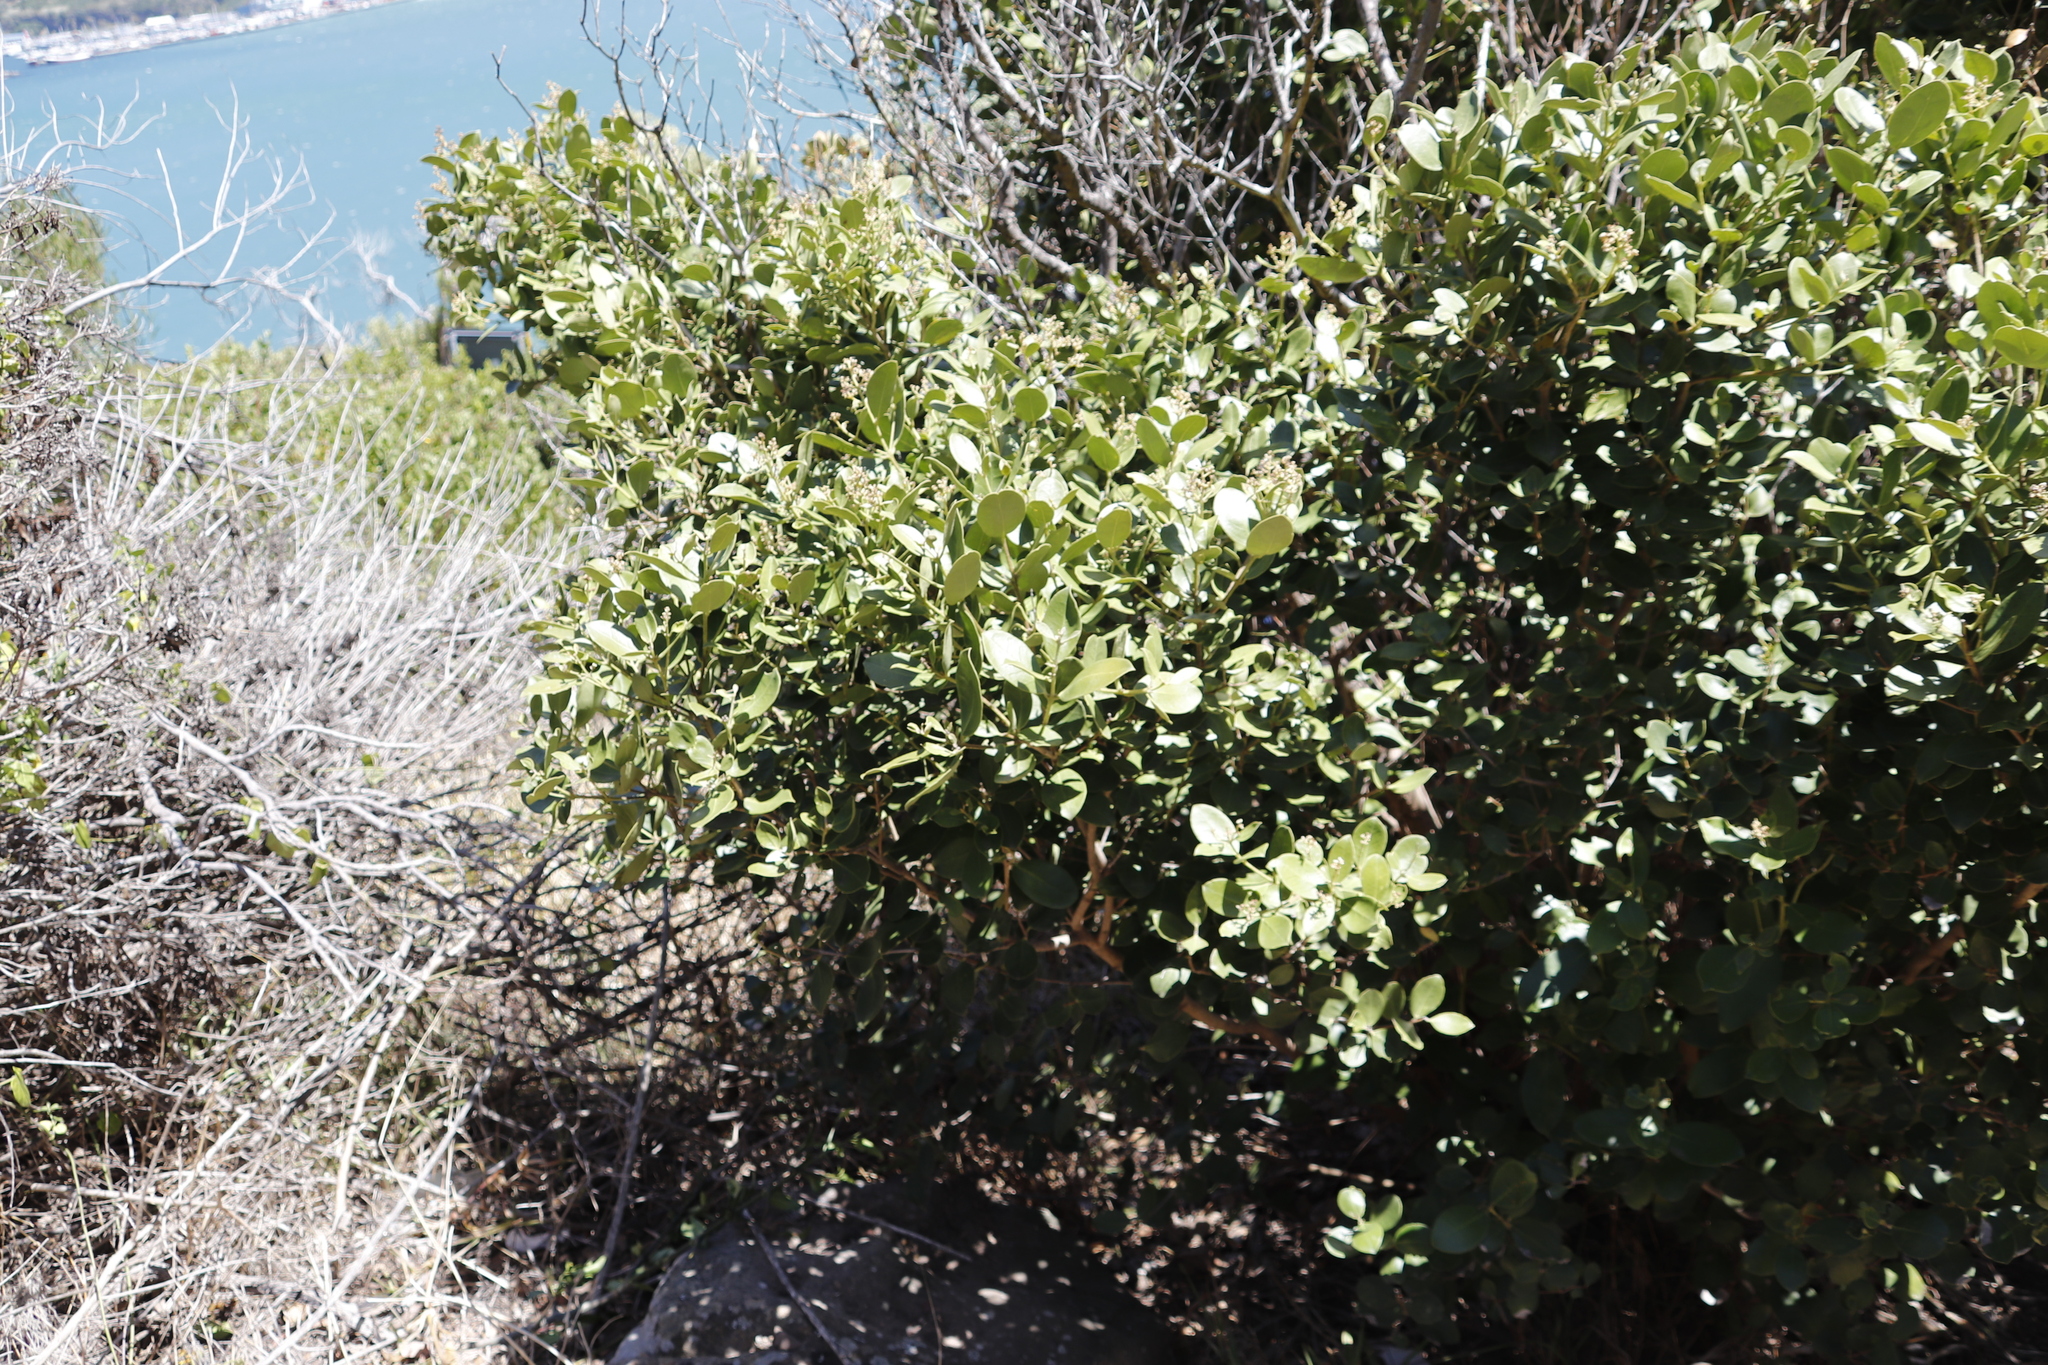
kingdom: Plantae
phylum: Tracheophyta
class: Magnoliopsida
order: Lamiales
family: Oleaceae
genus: Olea
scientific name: Olea capensis
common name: Black ironwood
